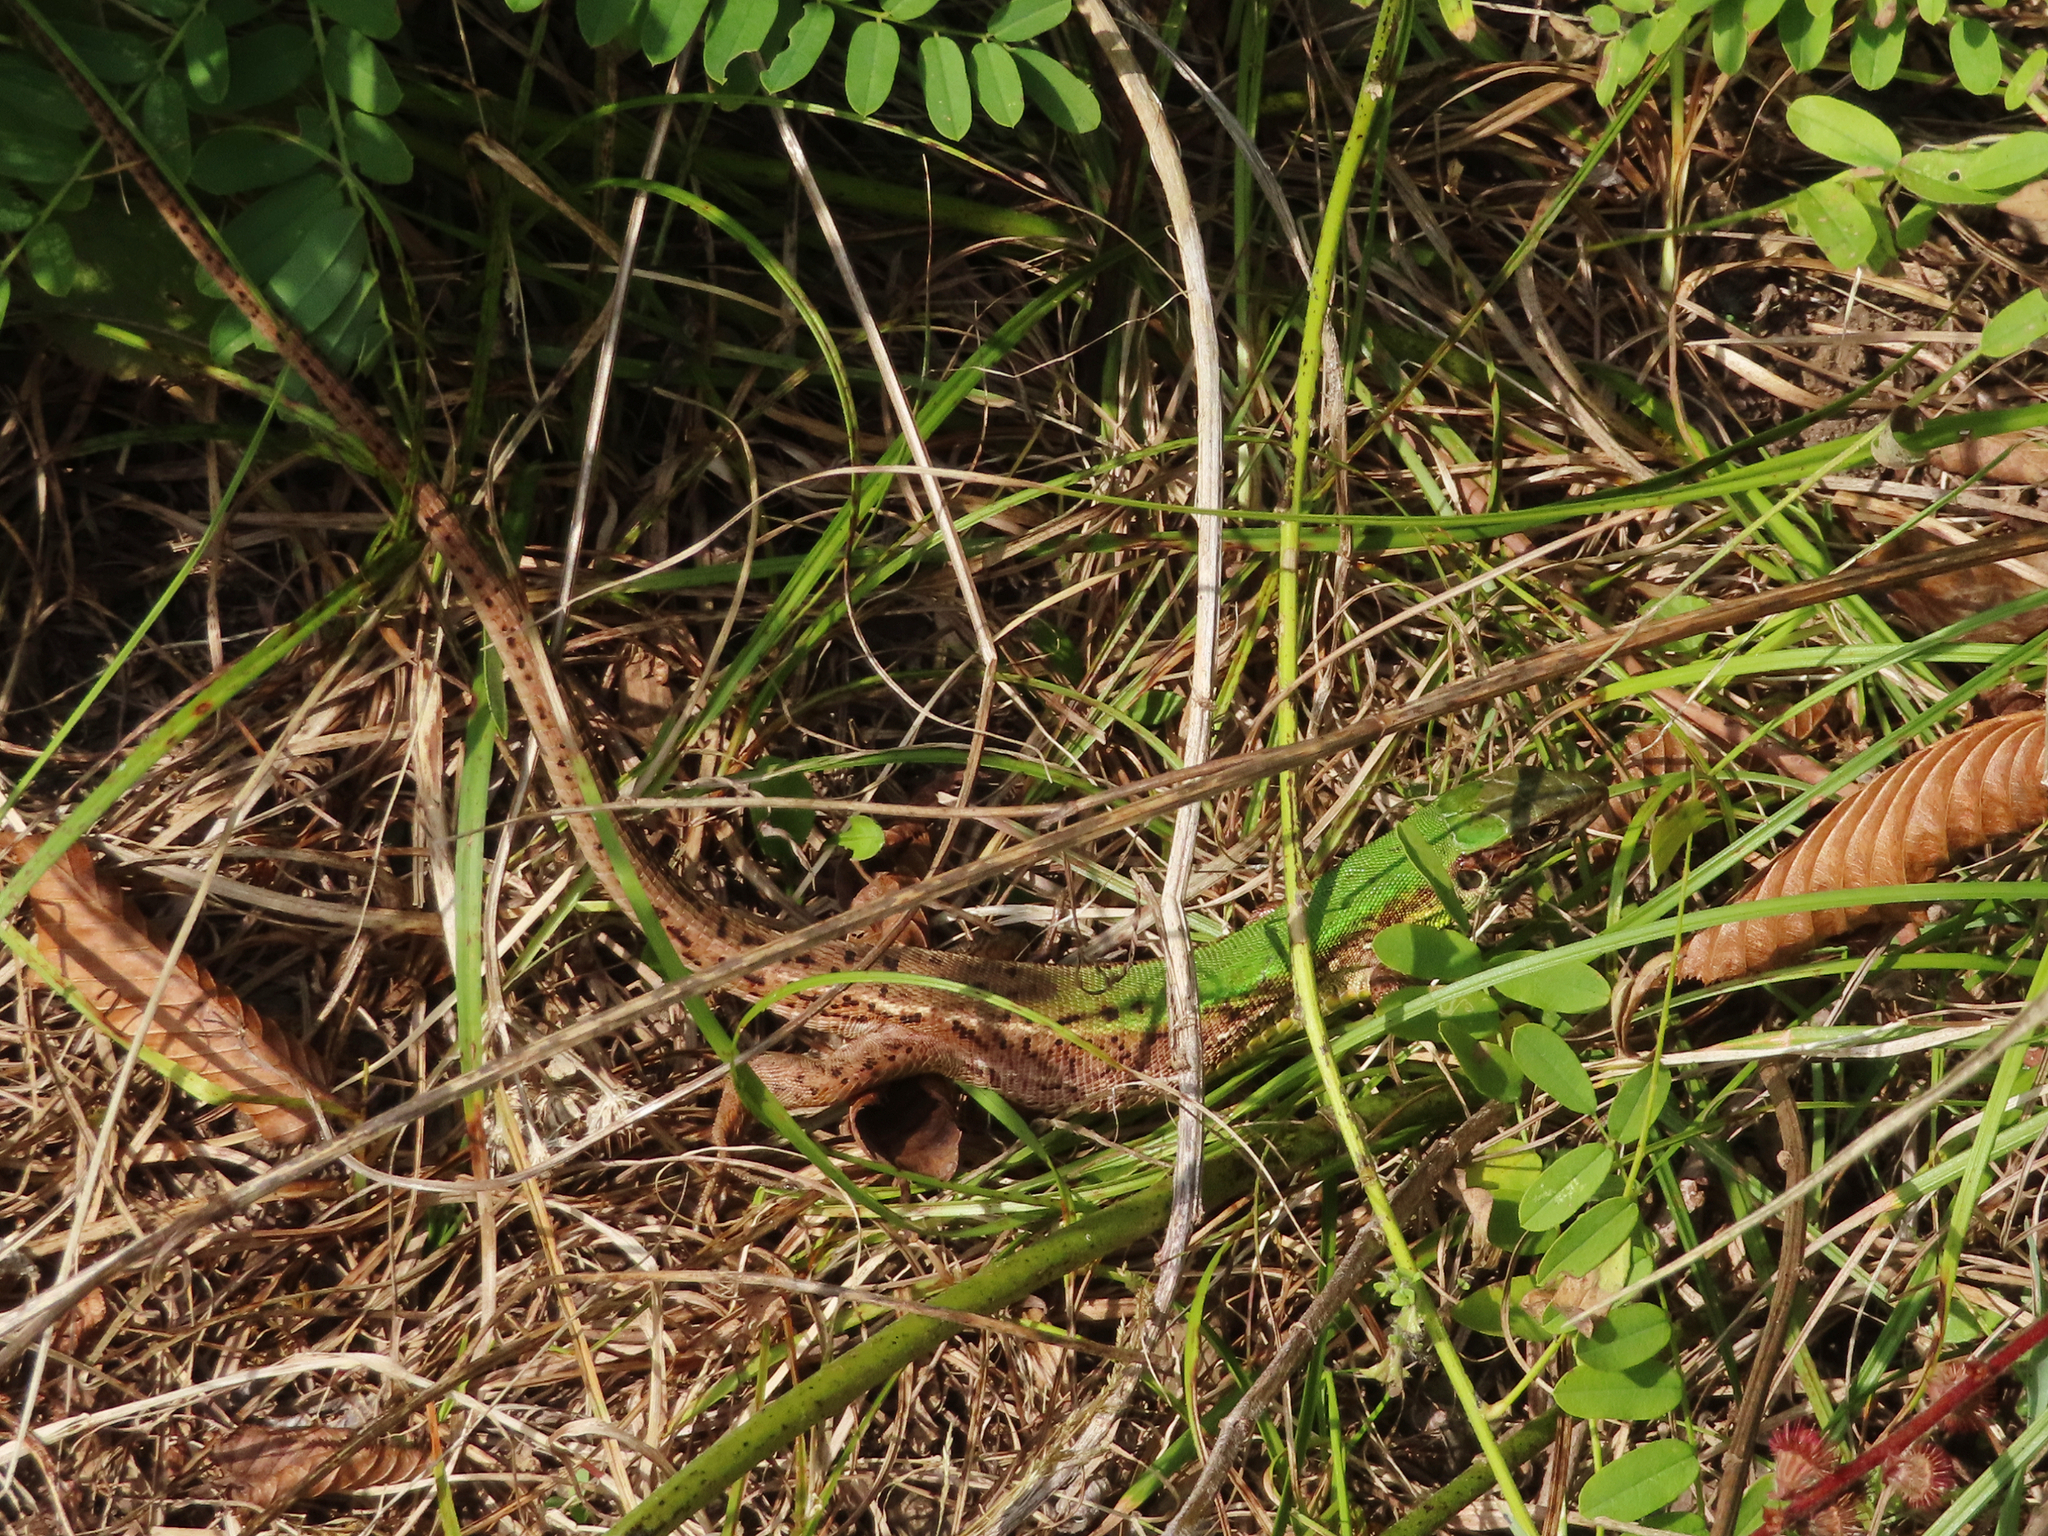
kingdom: Animalia
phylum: Chordata
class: Squamata
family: Lacertidae
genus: Lacerta
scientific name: Lacerta viridis
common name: European green lizard
